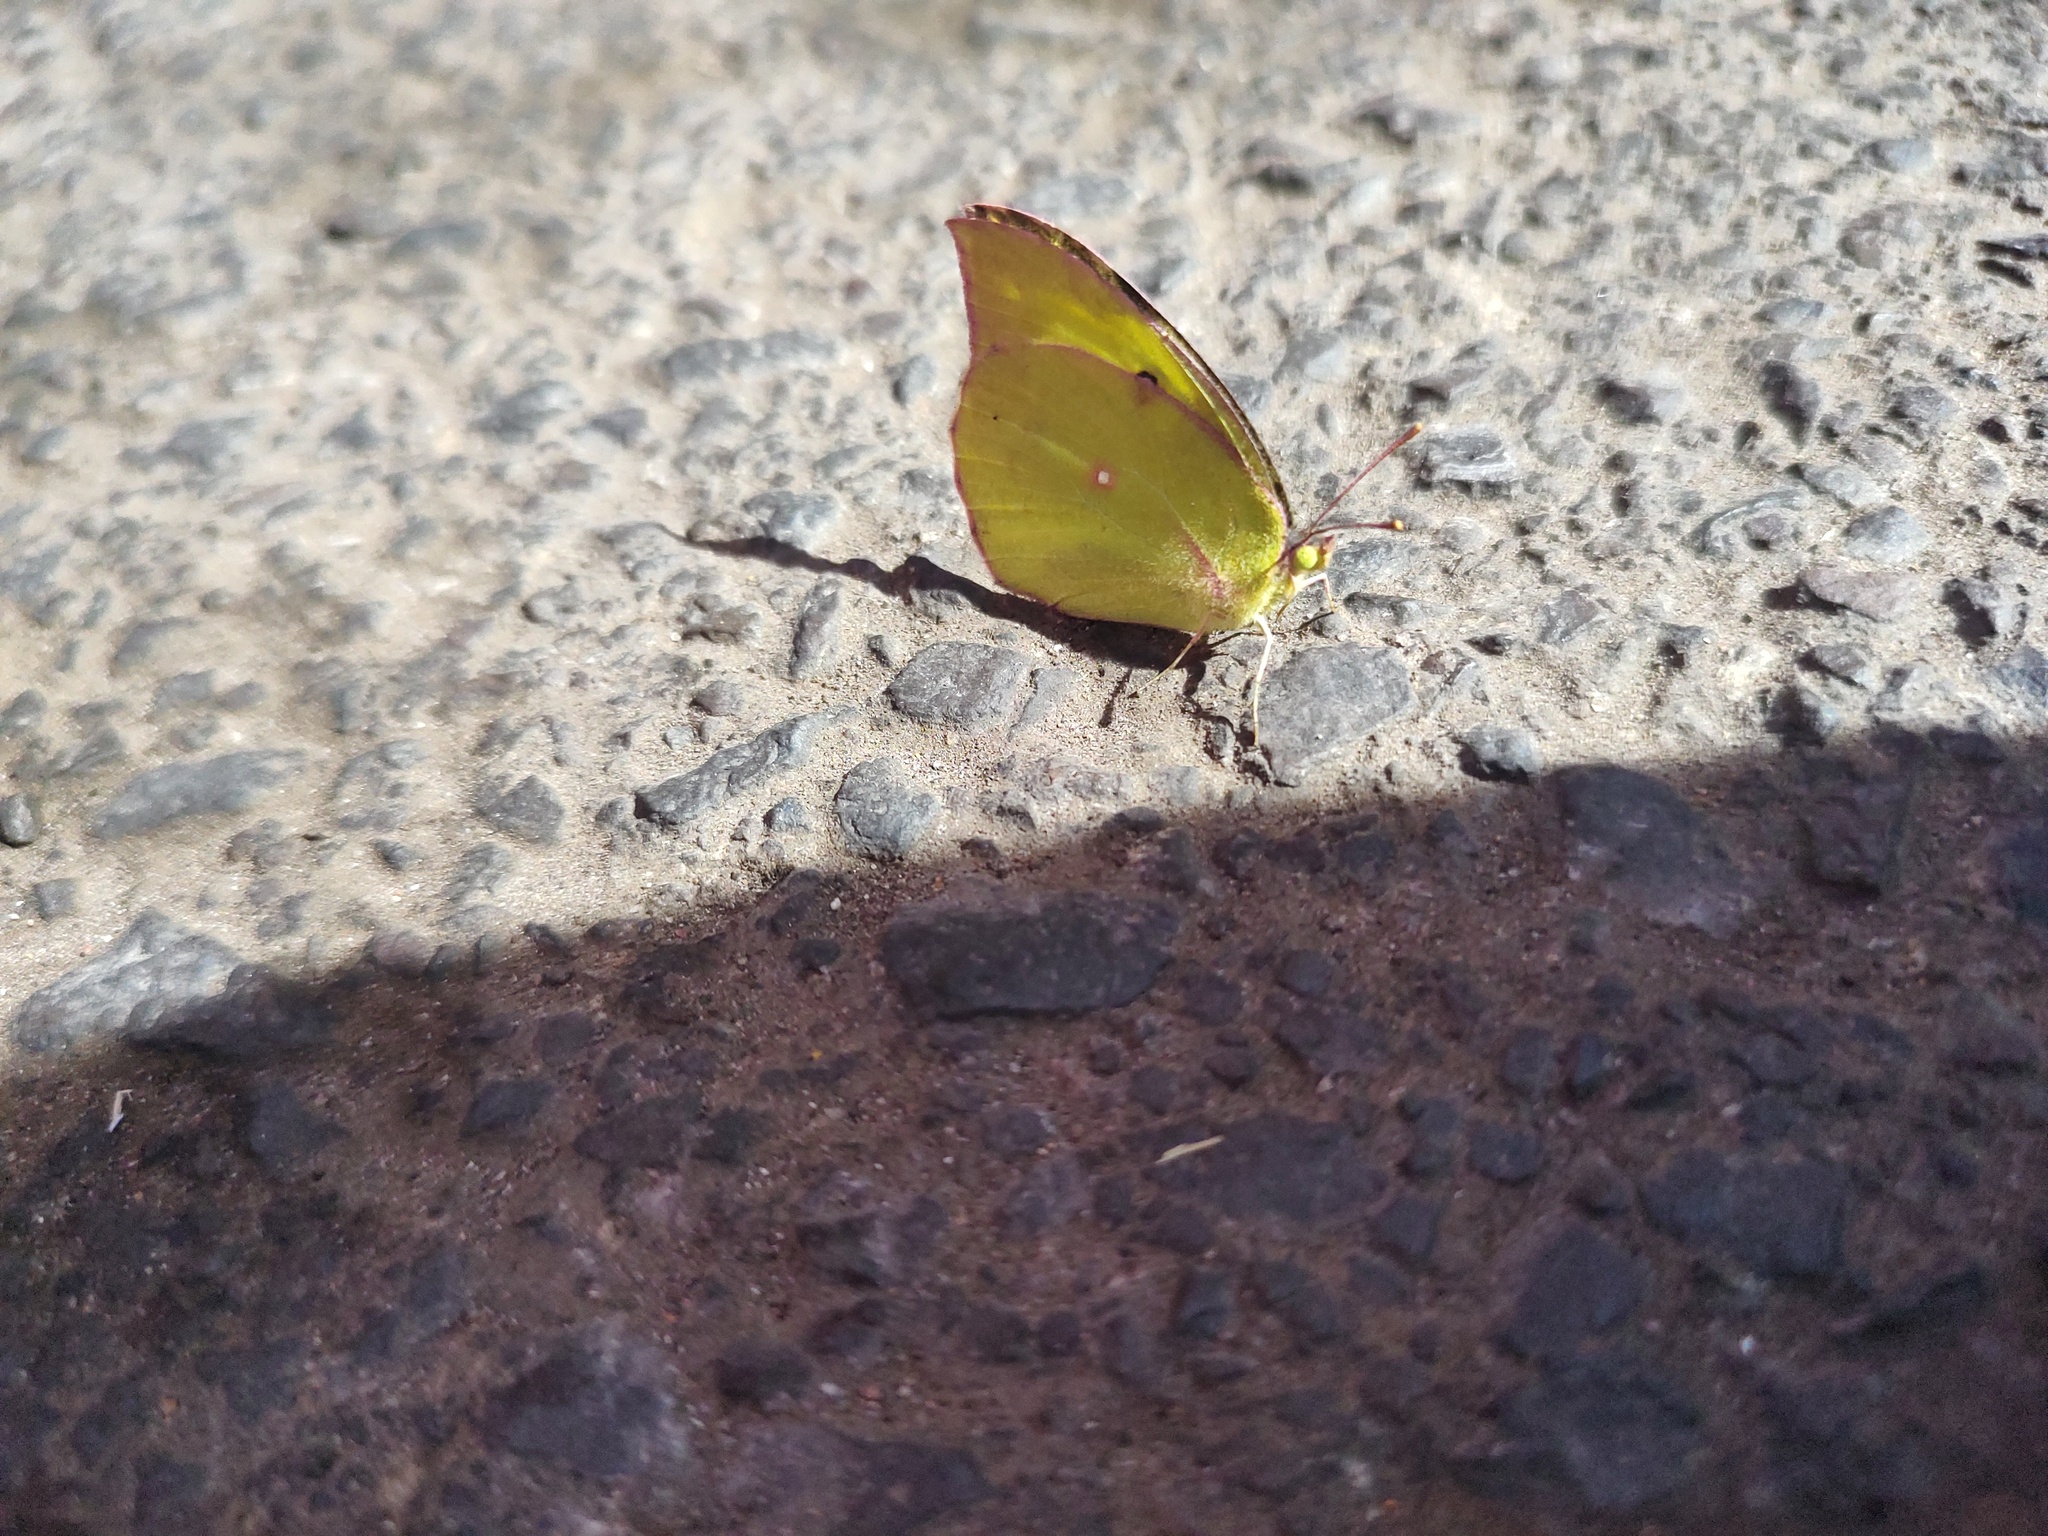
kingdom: Animalia
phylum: Arthropoda
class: Insecta
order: Lepidoptera
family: Pieridae
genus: Zerene
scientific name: Zerene cesonia
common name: Southern dogface
